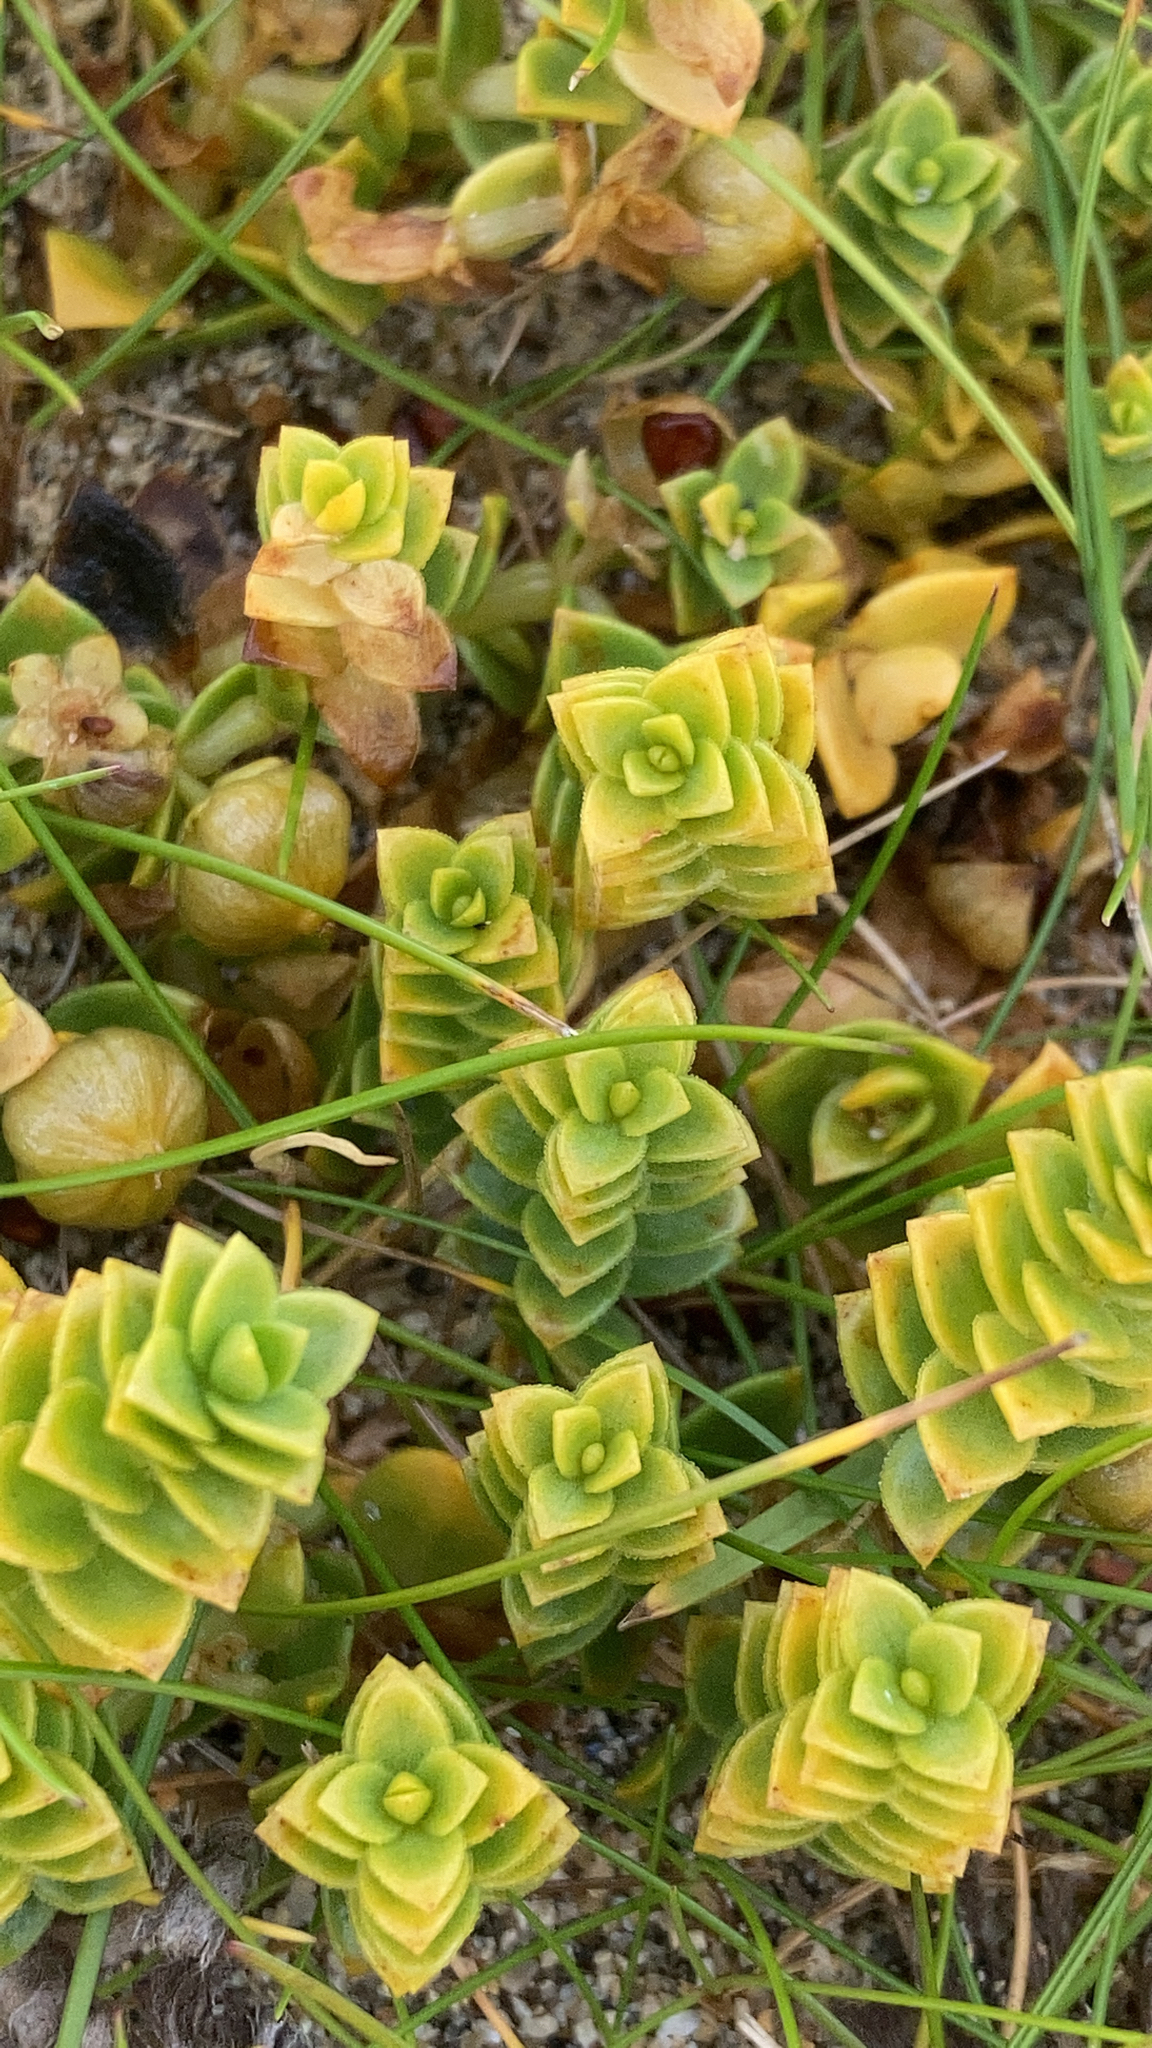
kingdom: Plantae
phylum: Tracheophyta
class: Magnoliopsida
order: Caryophyllales
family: Caryophyllaceae
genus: Honckenya
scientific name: Honckenya peploides
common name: Sea sandwort
